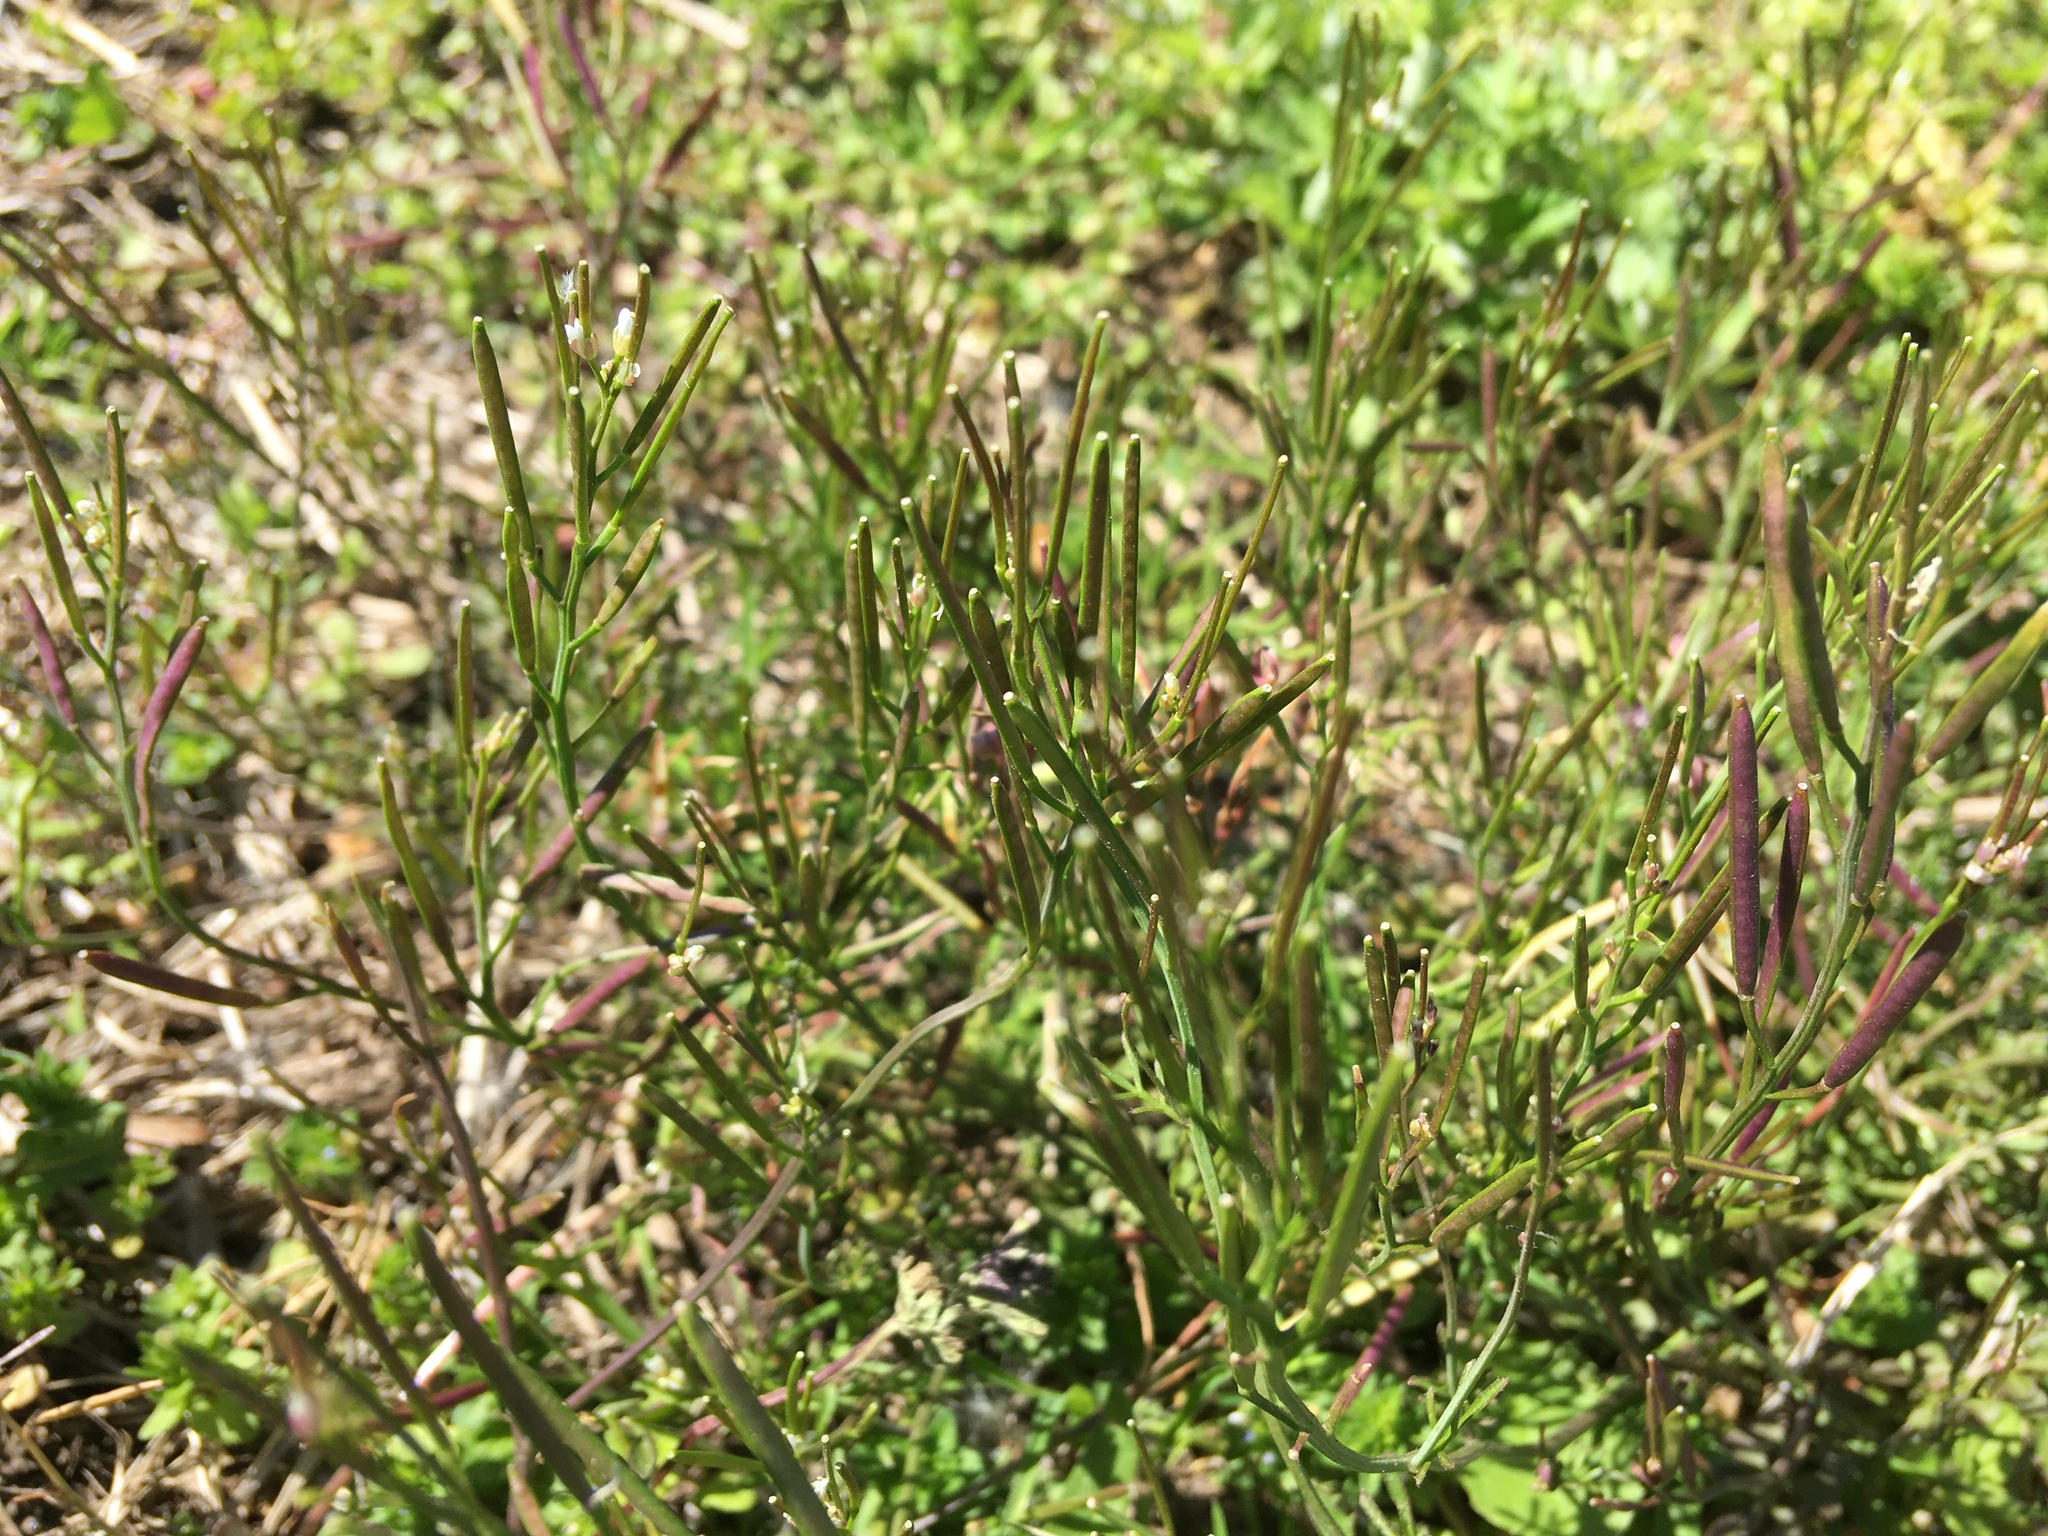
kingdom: Plantae
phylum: Tracheophyta
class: Magnoliopsida
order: Brassicales
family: Brassicaceae
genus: Cardamine
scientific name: Cardamine hirsuta
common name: Hairy bittercress
